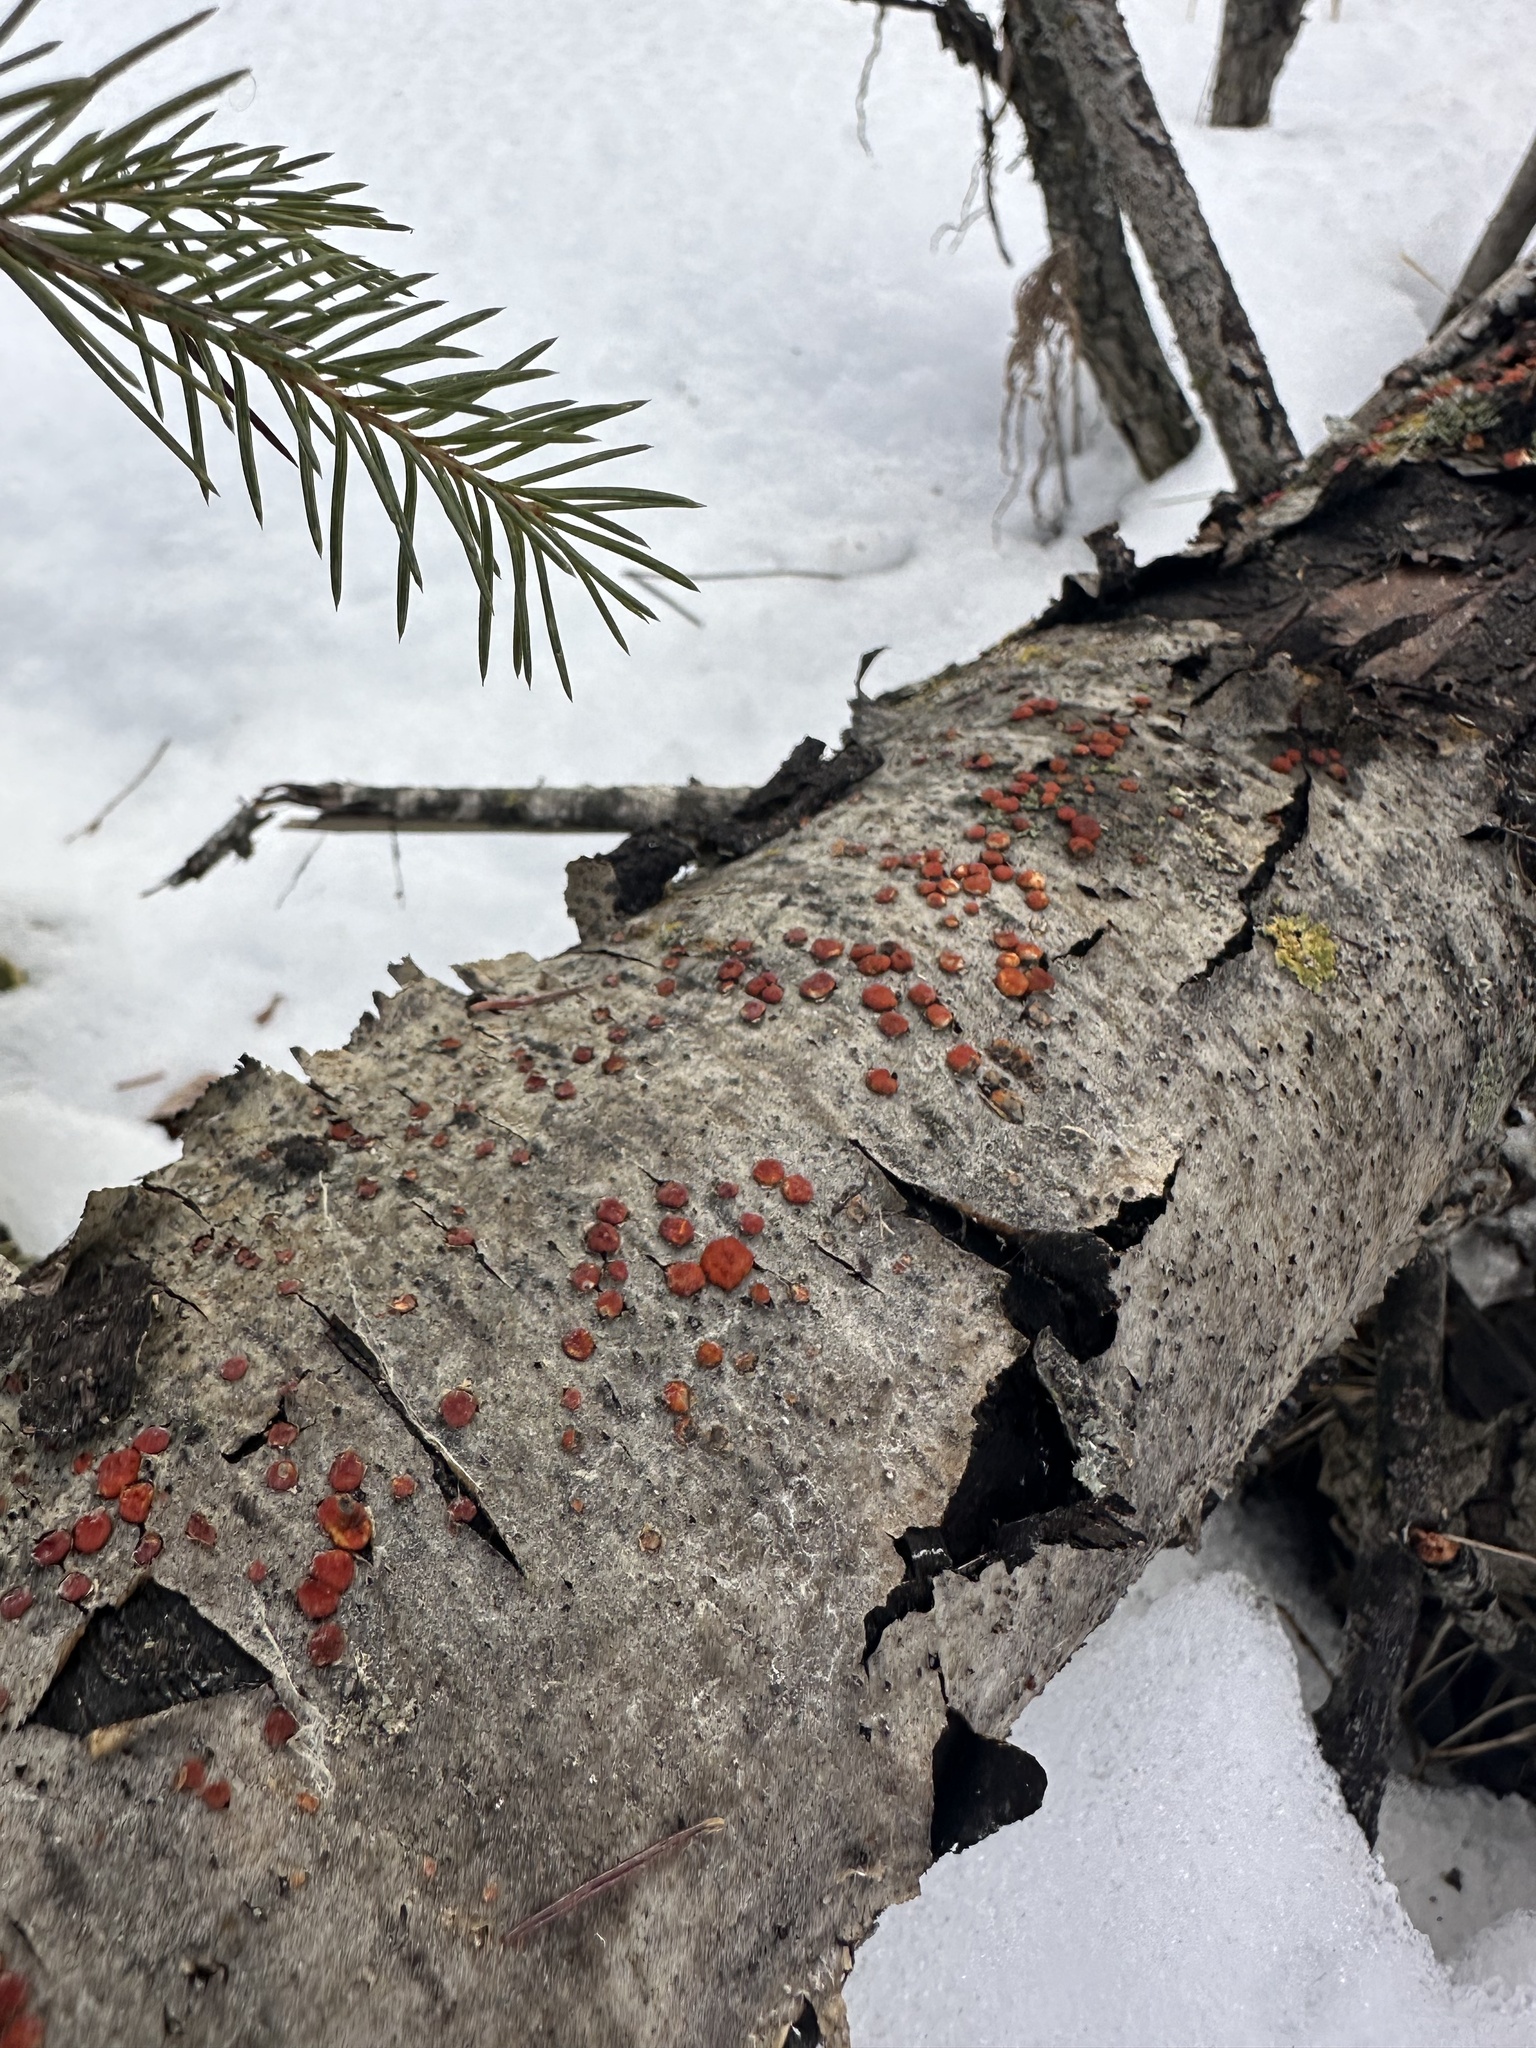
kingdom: Fungi
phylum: Basidiomycota
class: Agaricomycetes
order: Russulales
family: Peniophoraceae
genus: Peniophora
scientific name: Peniophora rufa
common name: Red tree brain fungus
